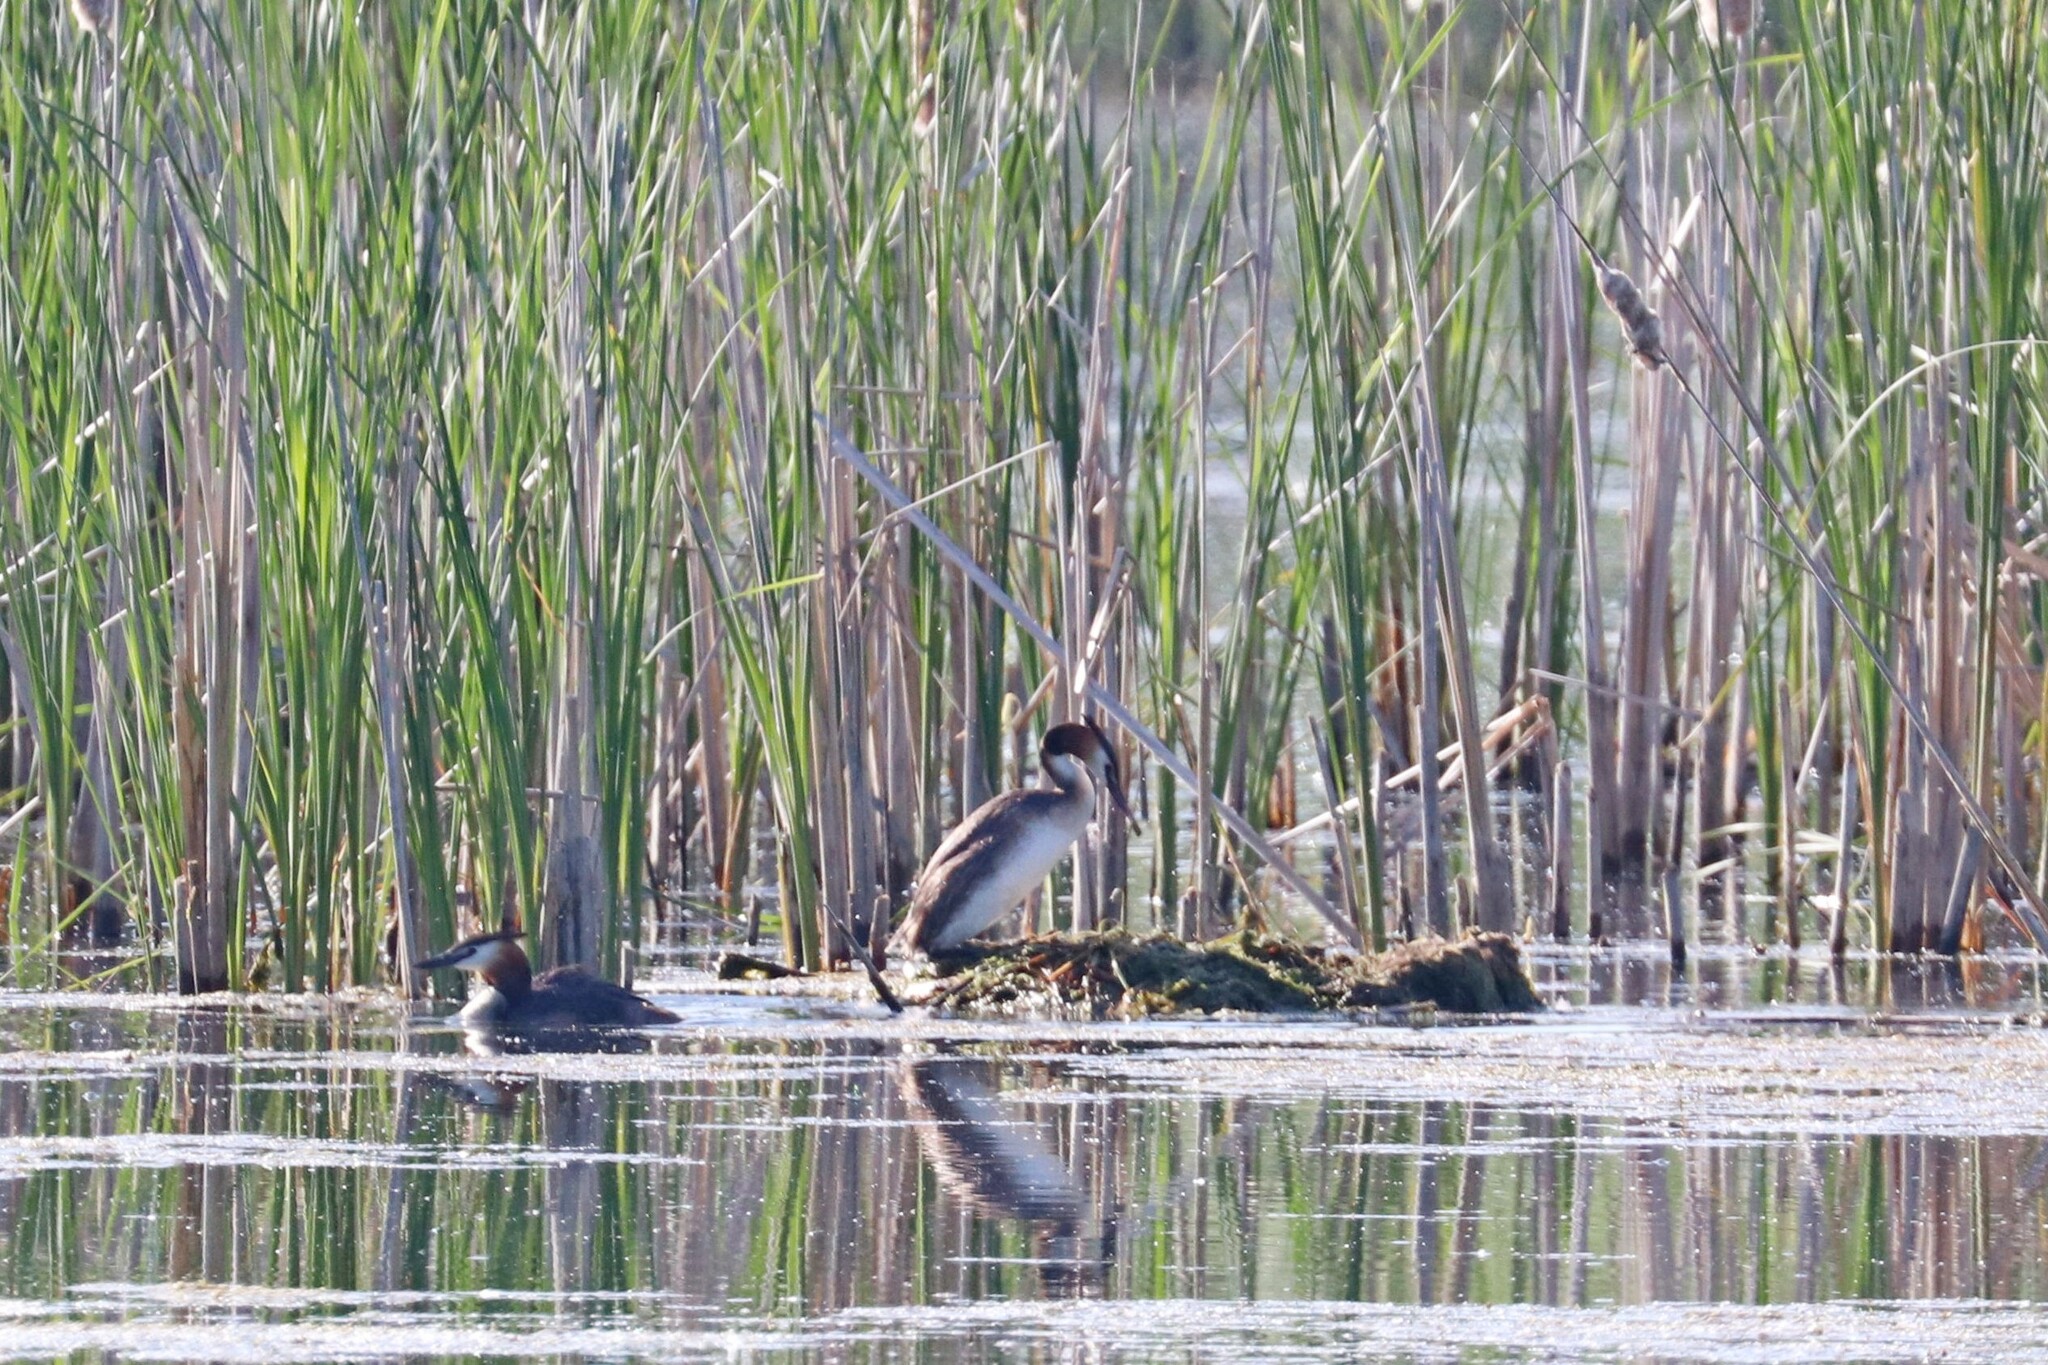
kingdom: Animalia
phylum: Chordata
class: Aves
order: Podicipediformes
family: Podicipedidae
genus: Podiceps
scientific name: Podiceps cristatus
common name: Great crested grebe
